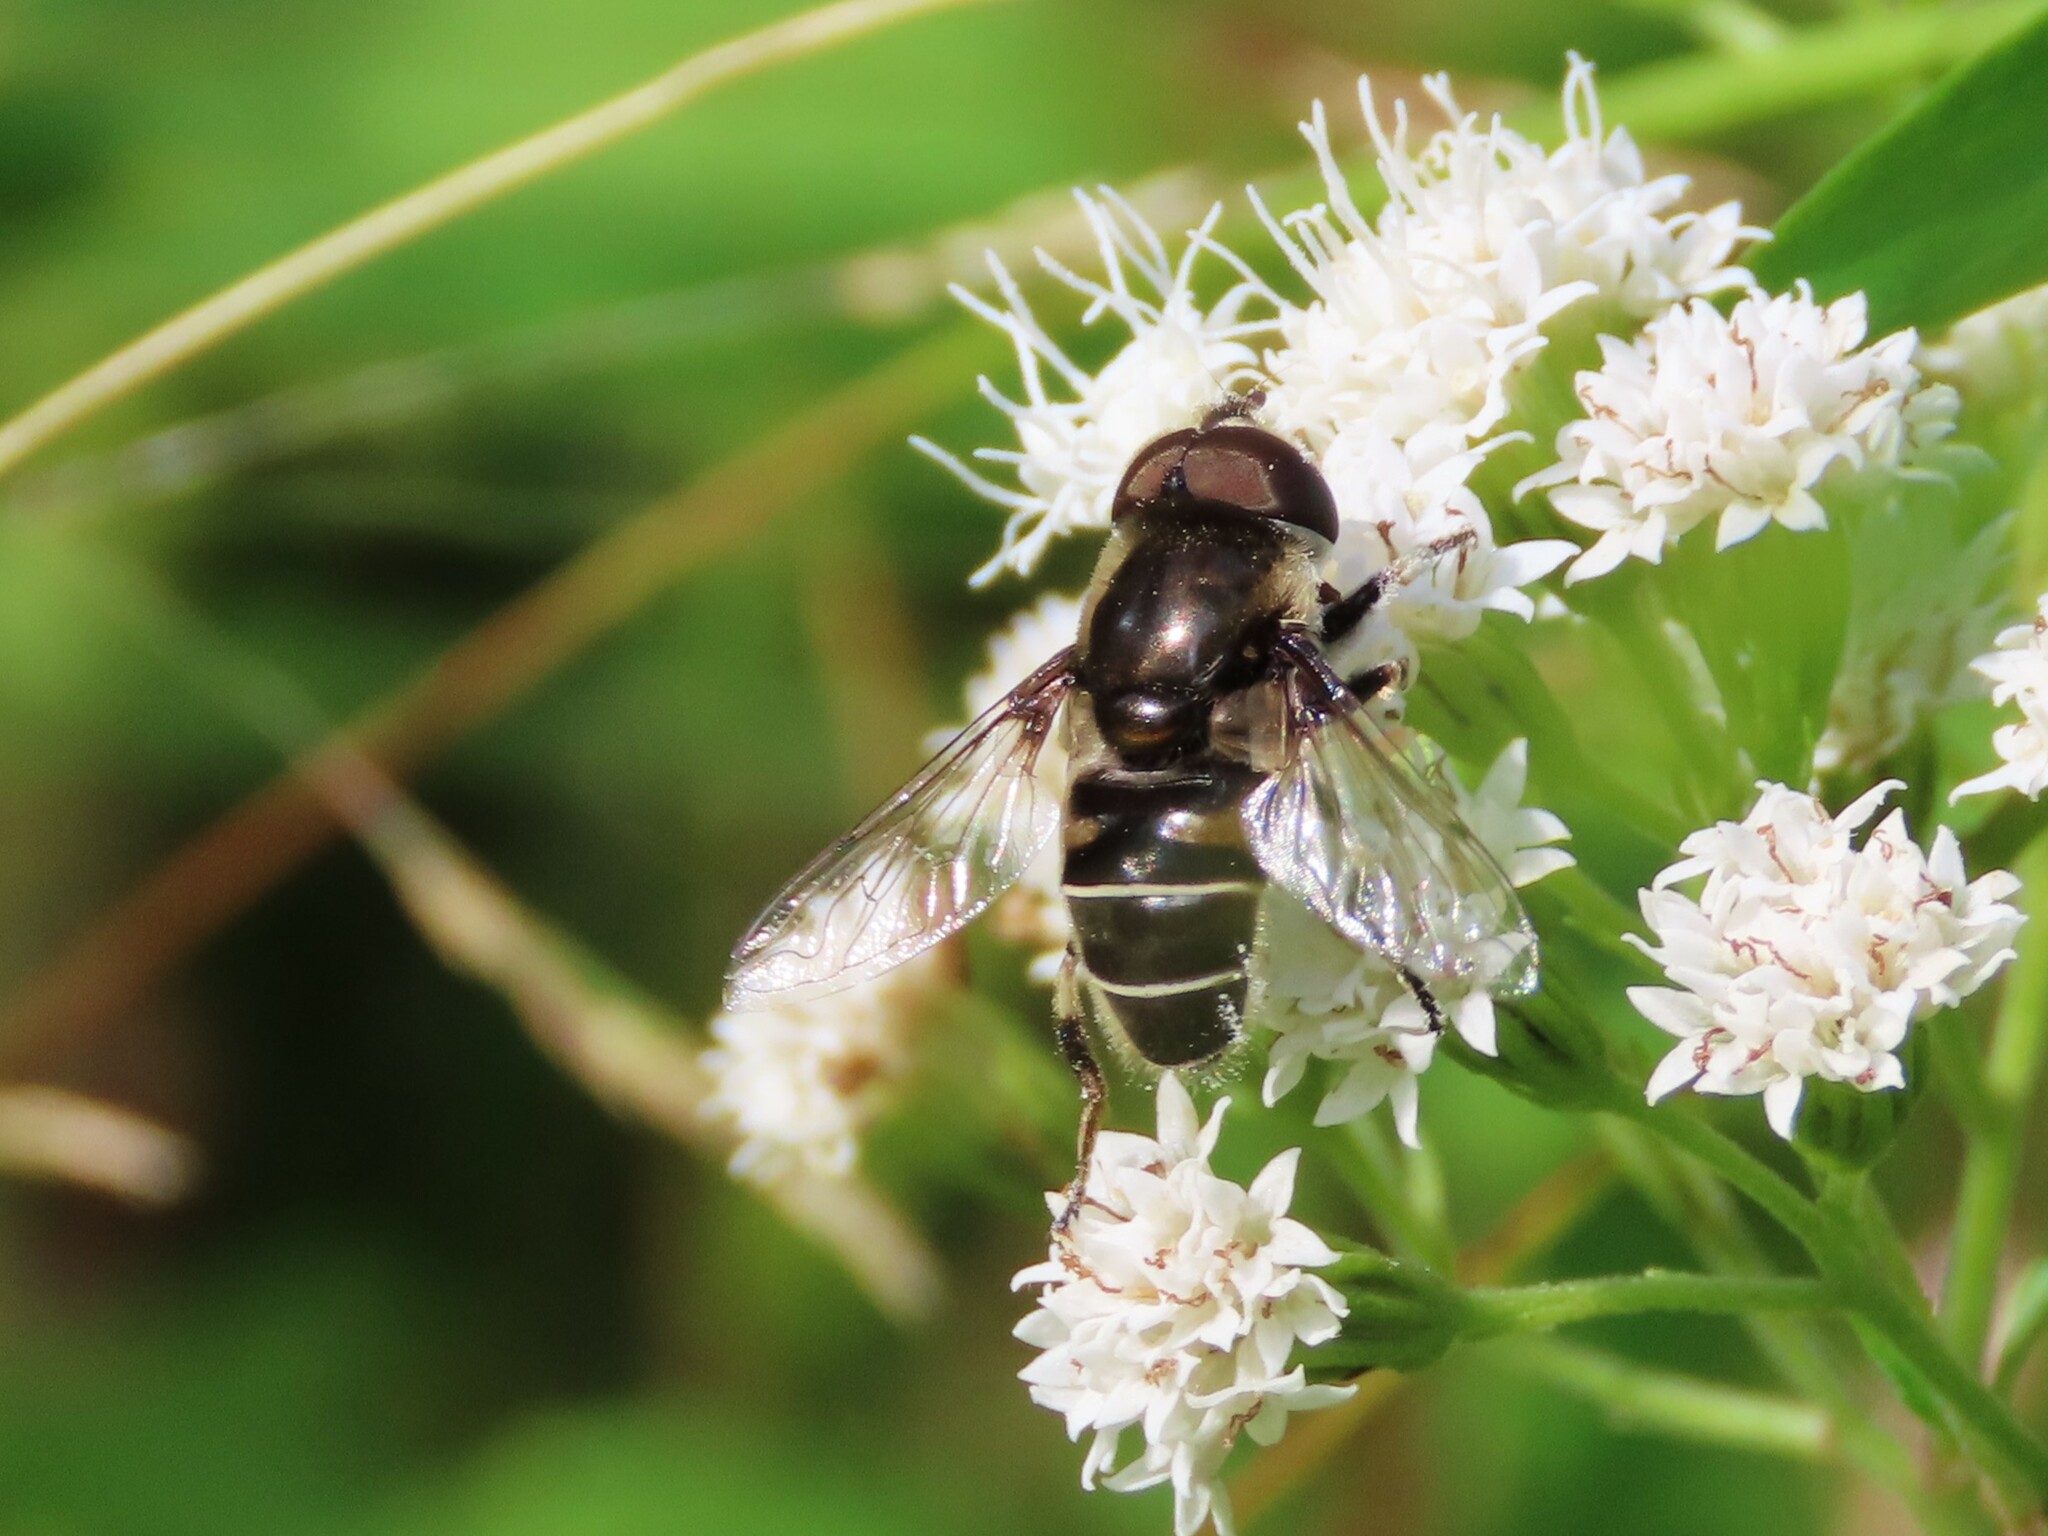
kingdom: Animalia
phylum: Arthropoda
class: Insecta
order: Diptera
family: Syrphidae
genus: Eristalis
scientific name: Eristalis dimidiata
